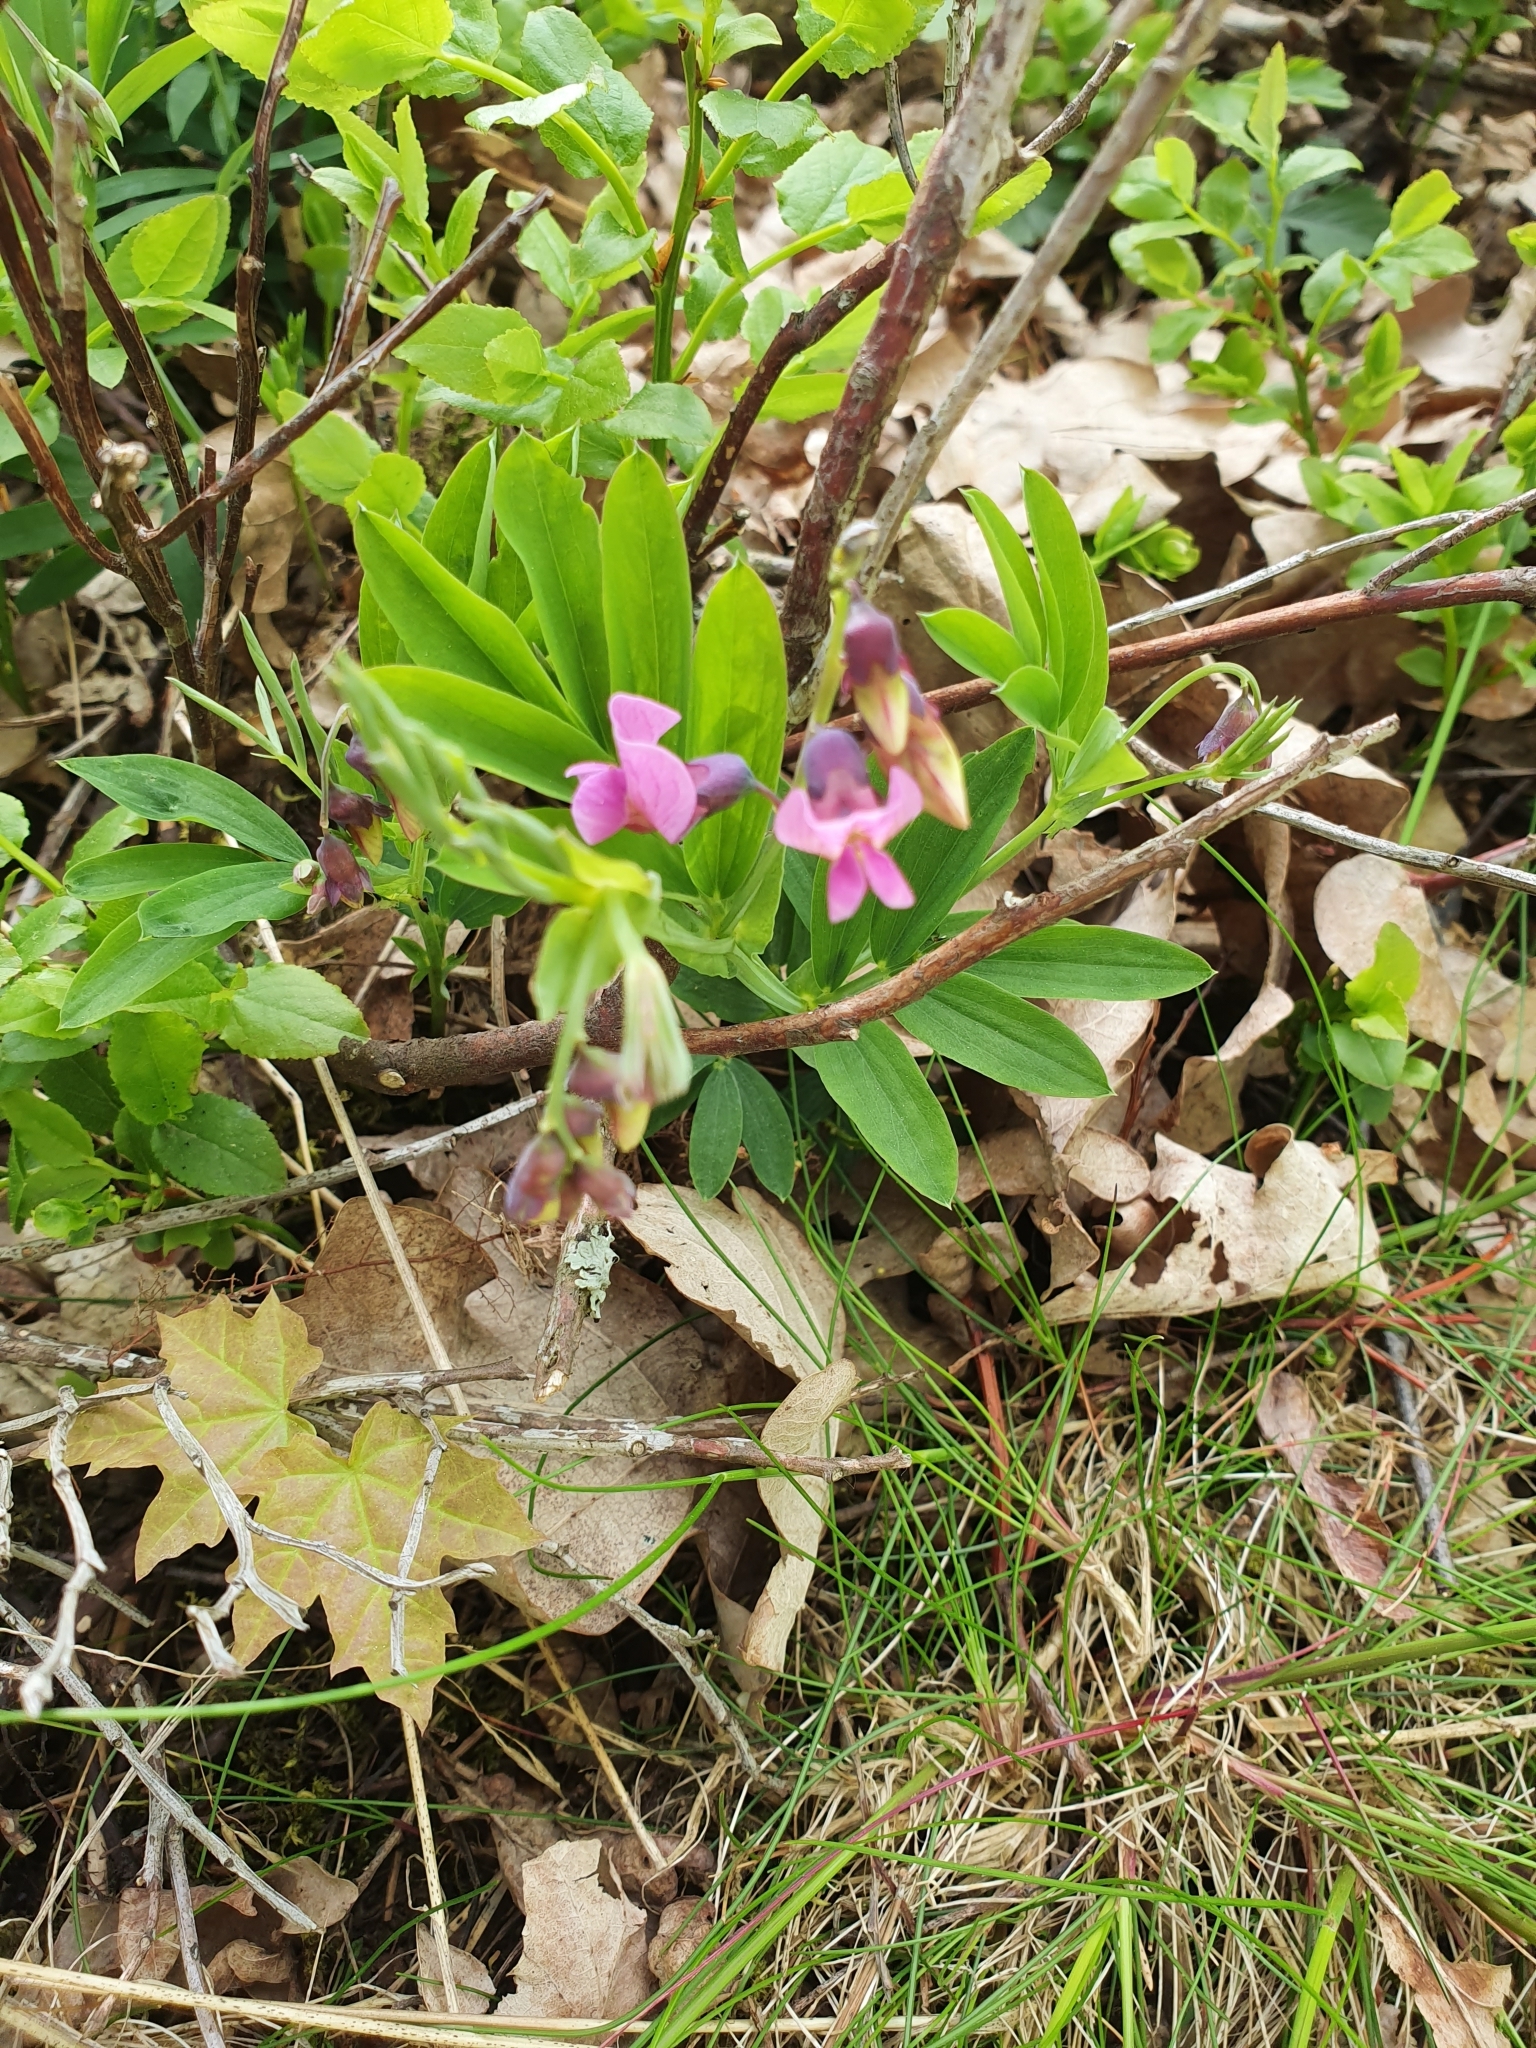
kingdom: Plantae
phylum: Tracheophyta
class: Magnoliopsida
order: Fabales
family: Fabaceae
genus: Lathyrus
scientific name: Lathyrus linifolius
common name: Bitter-vetch
